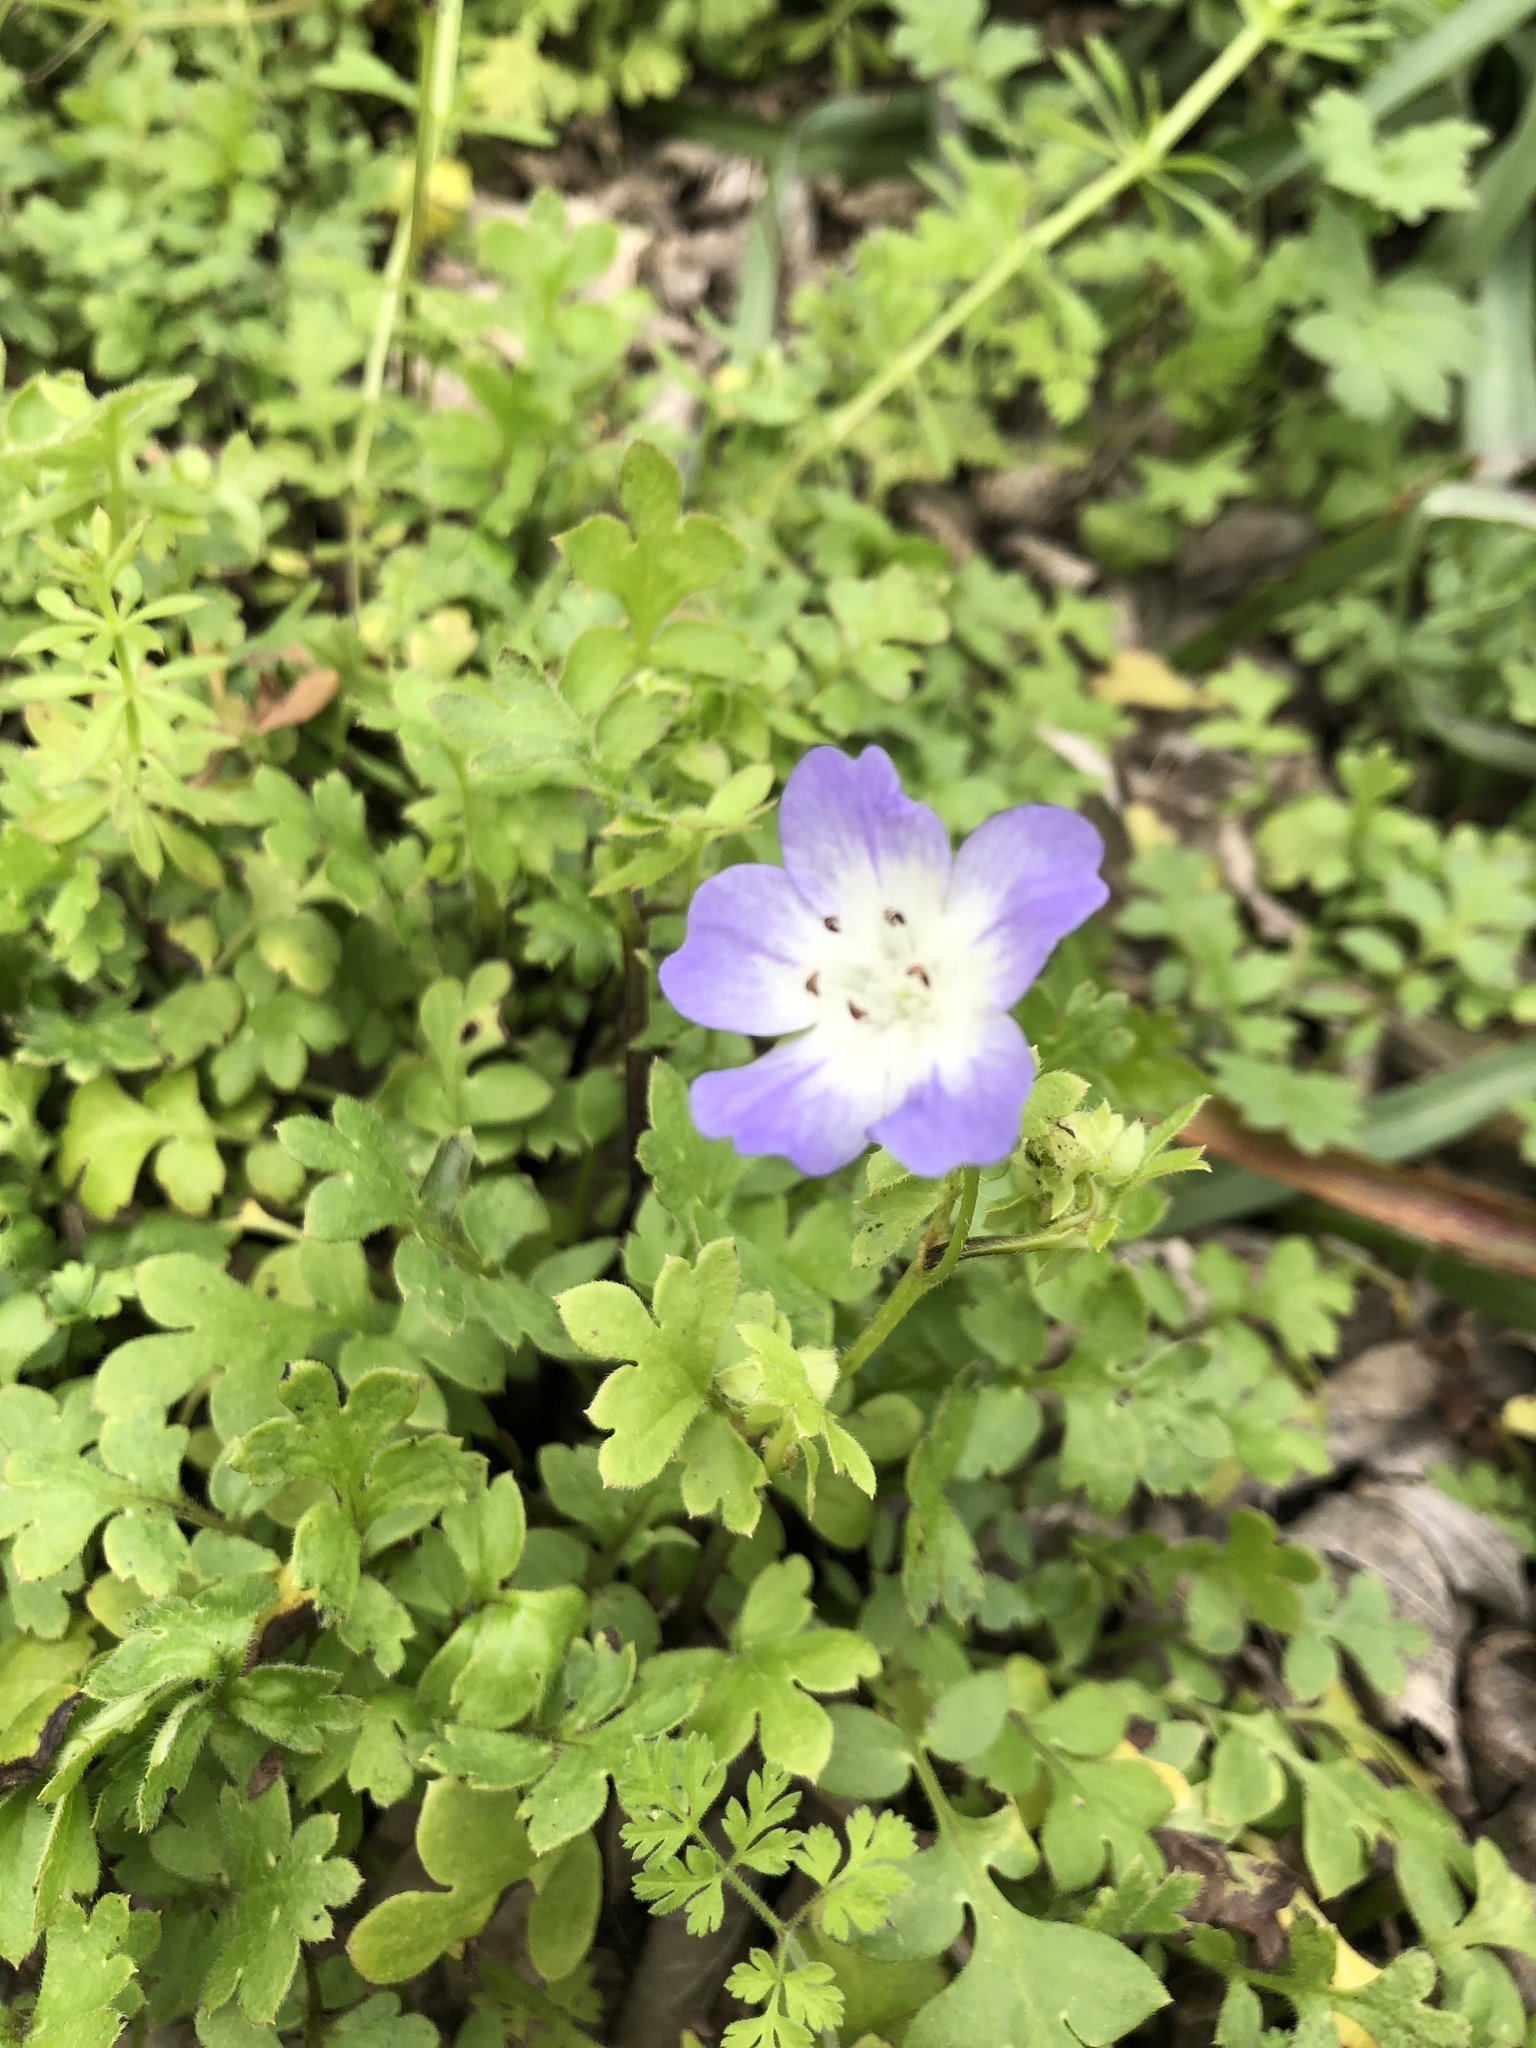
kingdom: Plantae
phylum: Tracheophyta
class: Magnoliopsida
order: Boraginales
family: Hydrophyllaceae
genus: Nemophila
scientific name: Nemophila phacelioides
